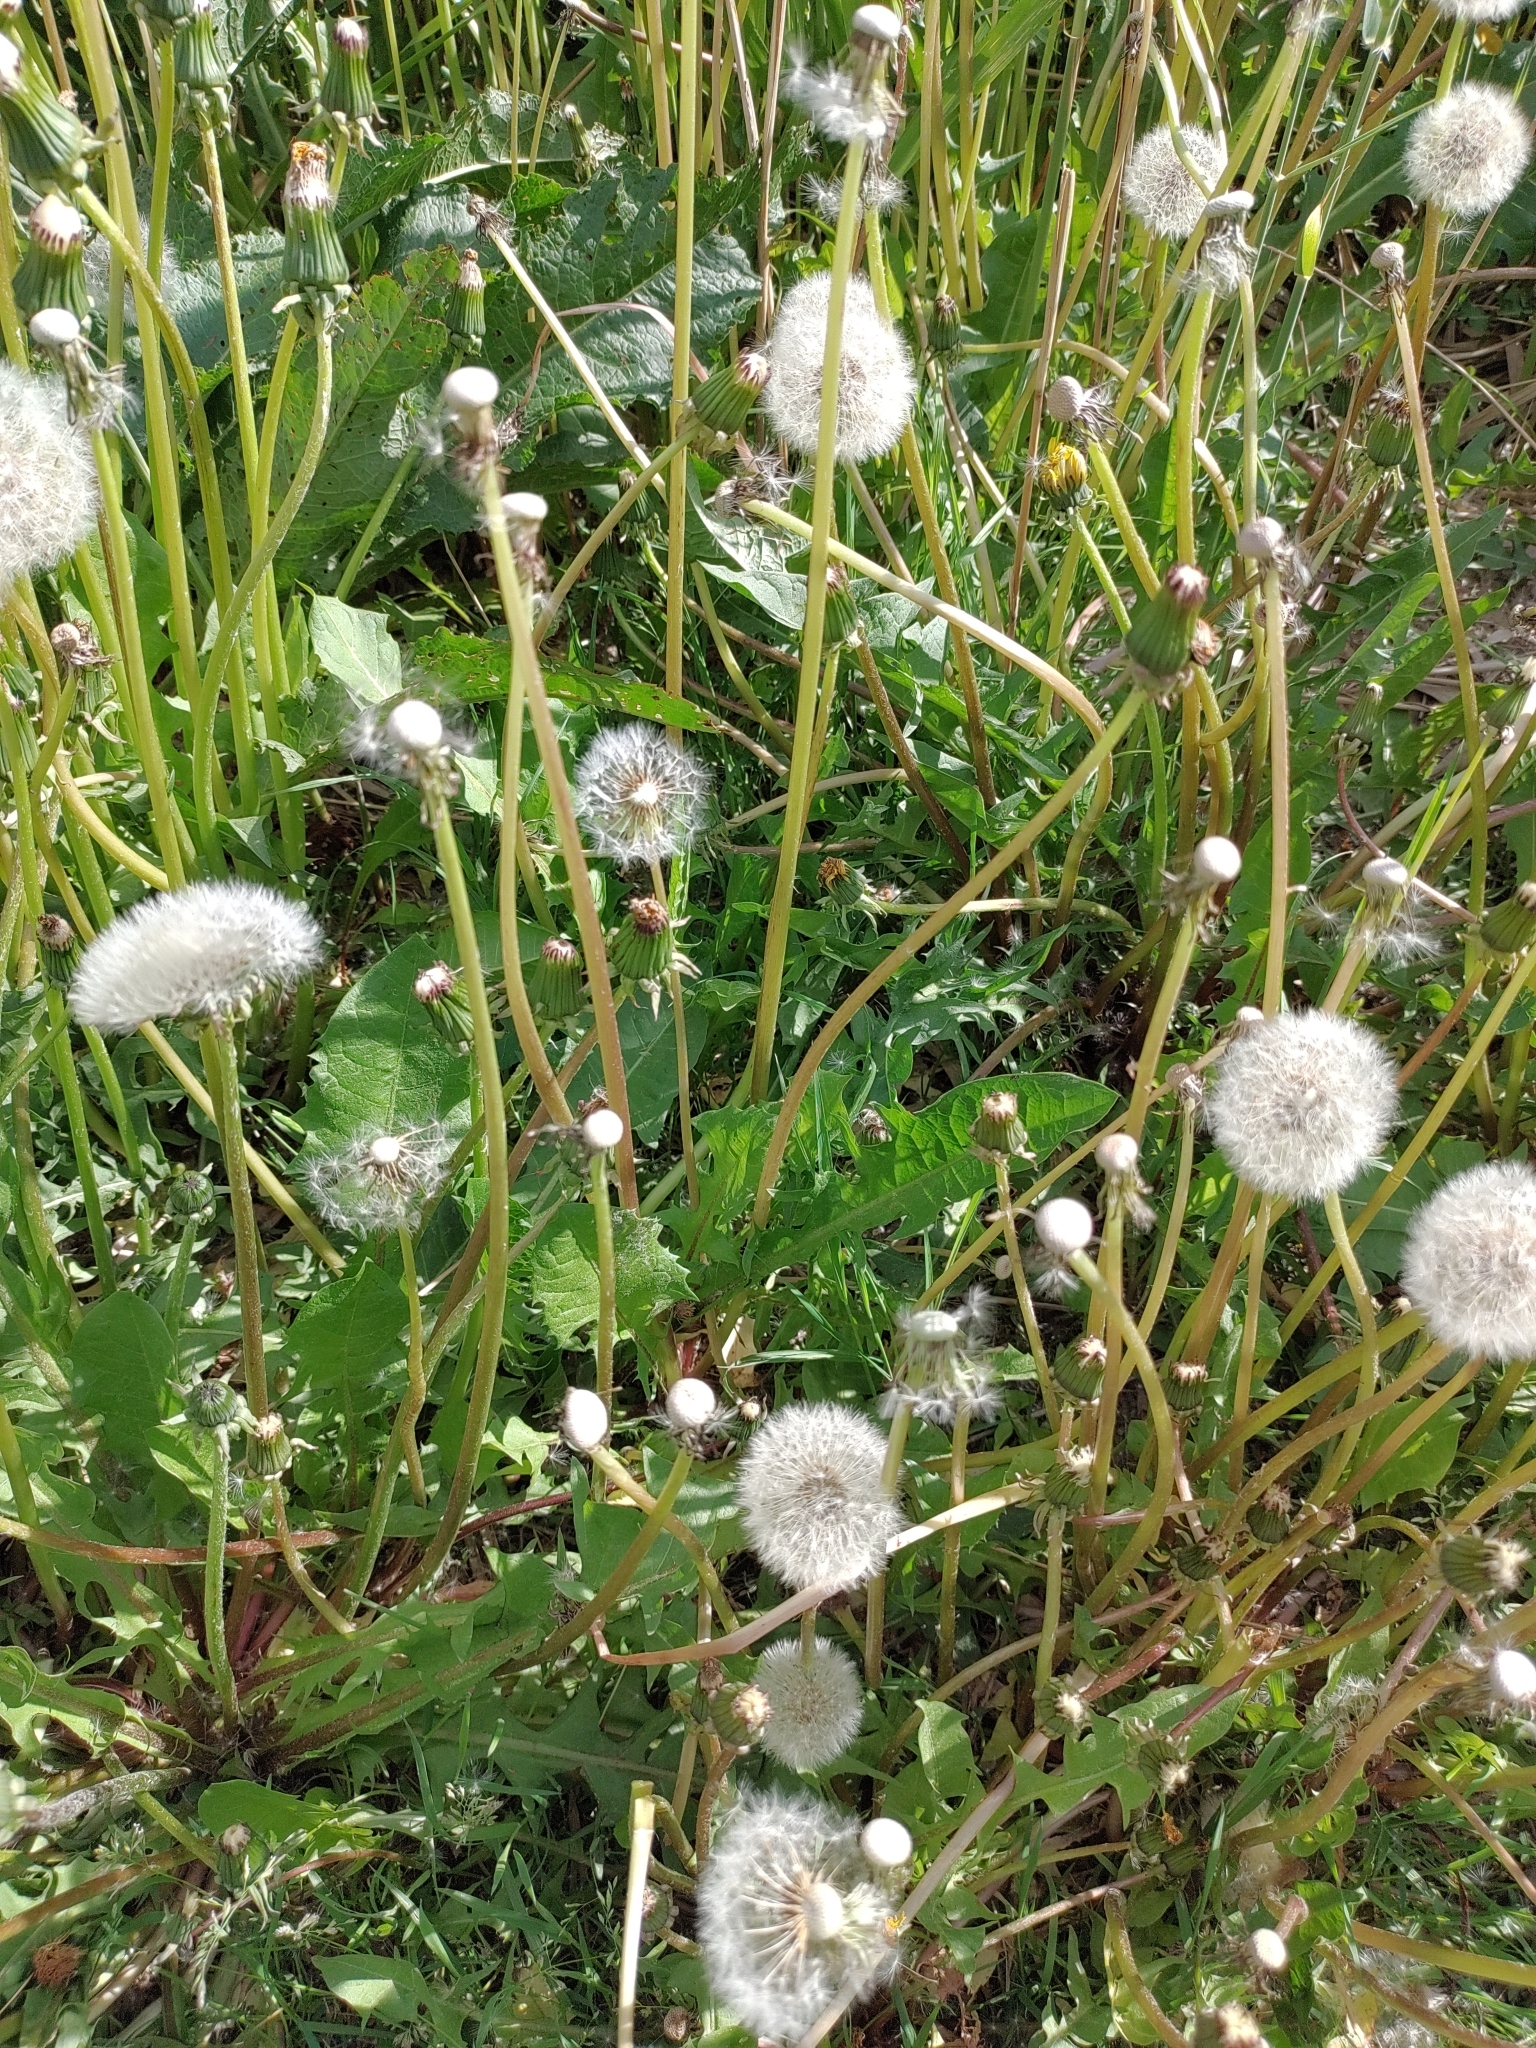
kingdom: Plantae
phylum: Tracheophyta
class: Magnoliopsida
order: Asterales
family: Asteraceae
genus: Taraxacum
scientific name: Taraxacum
